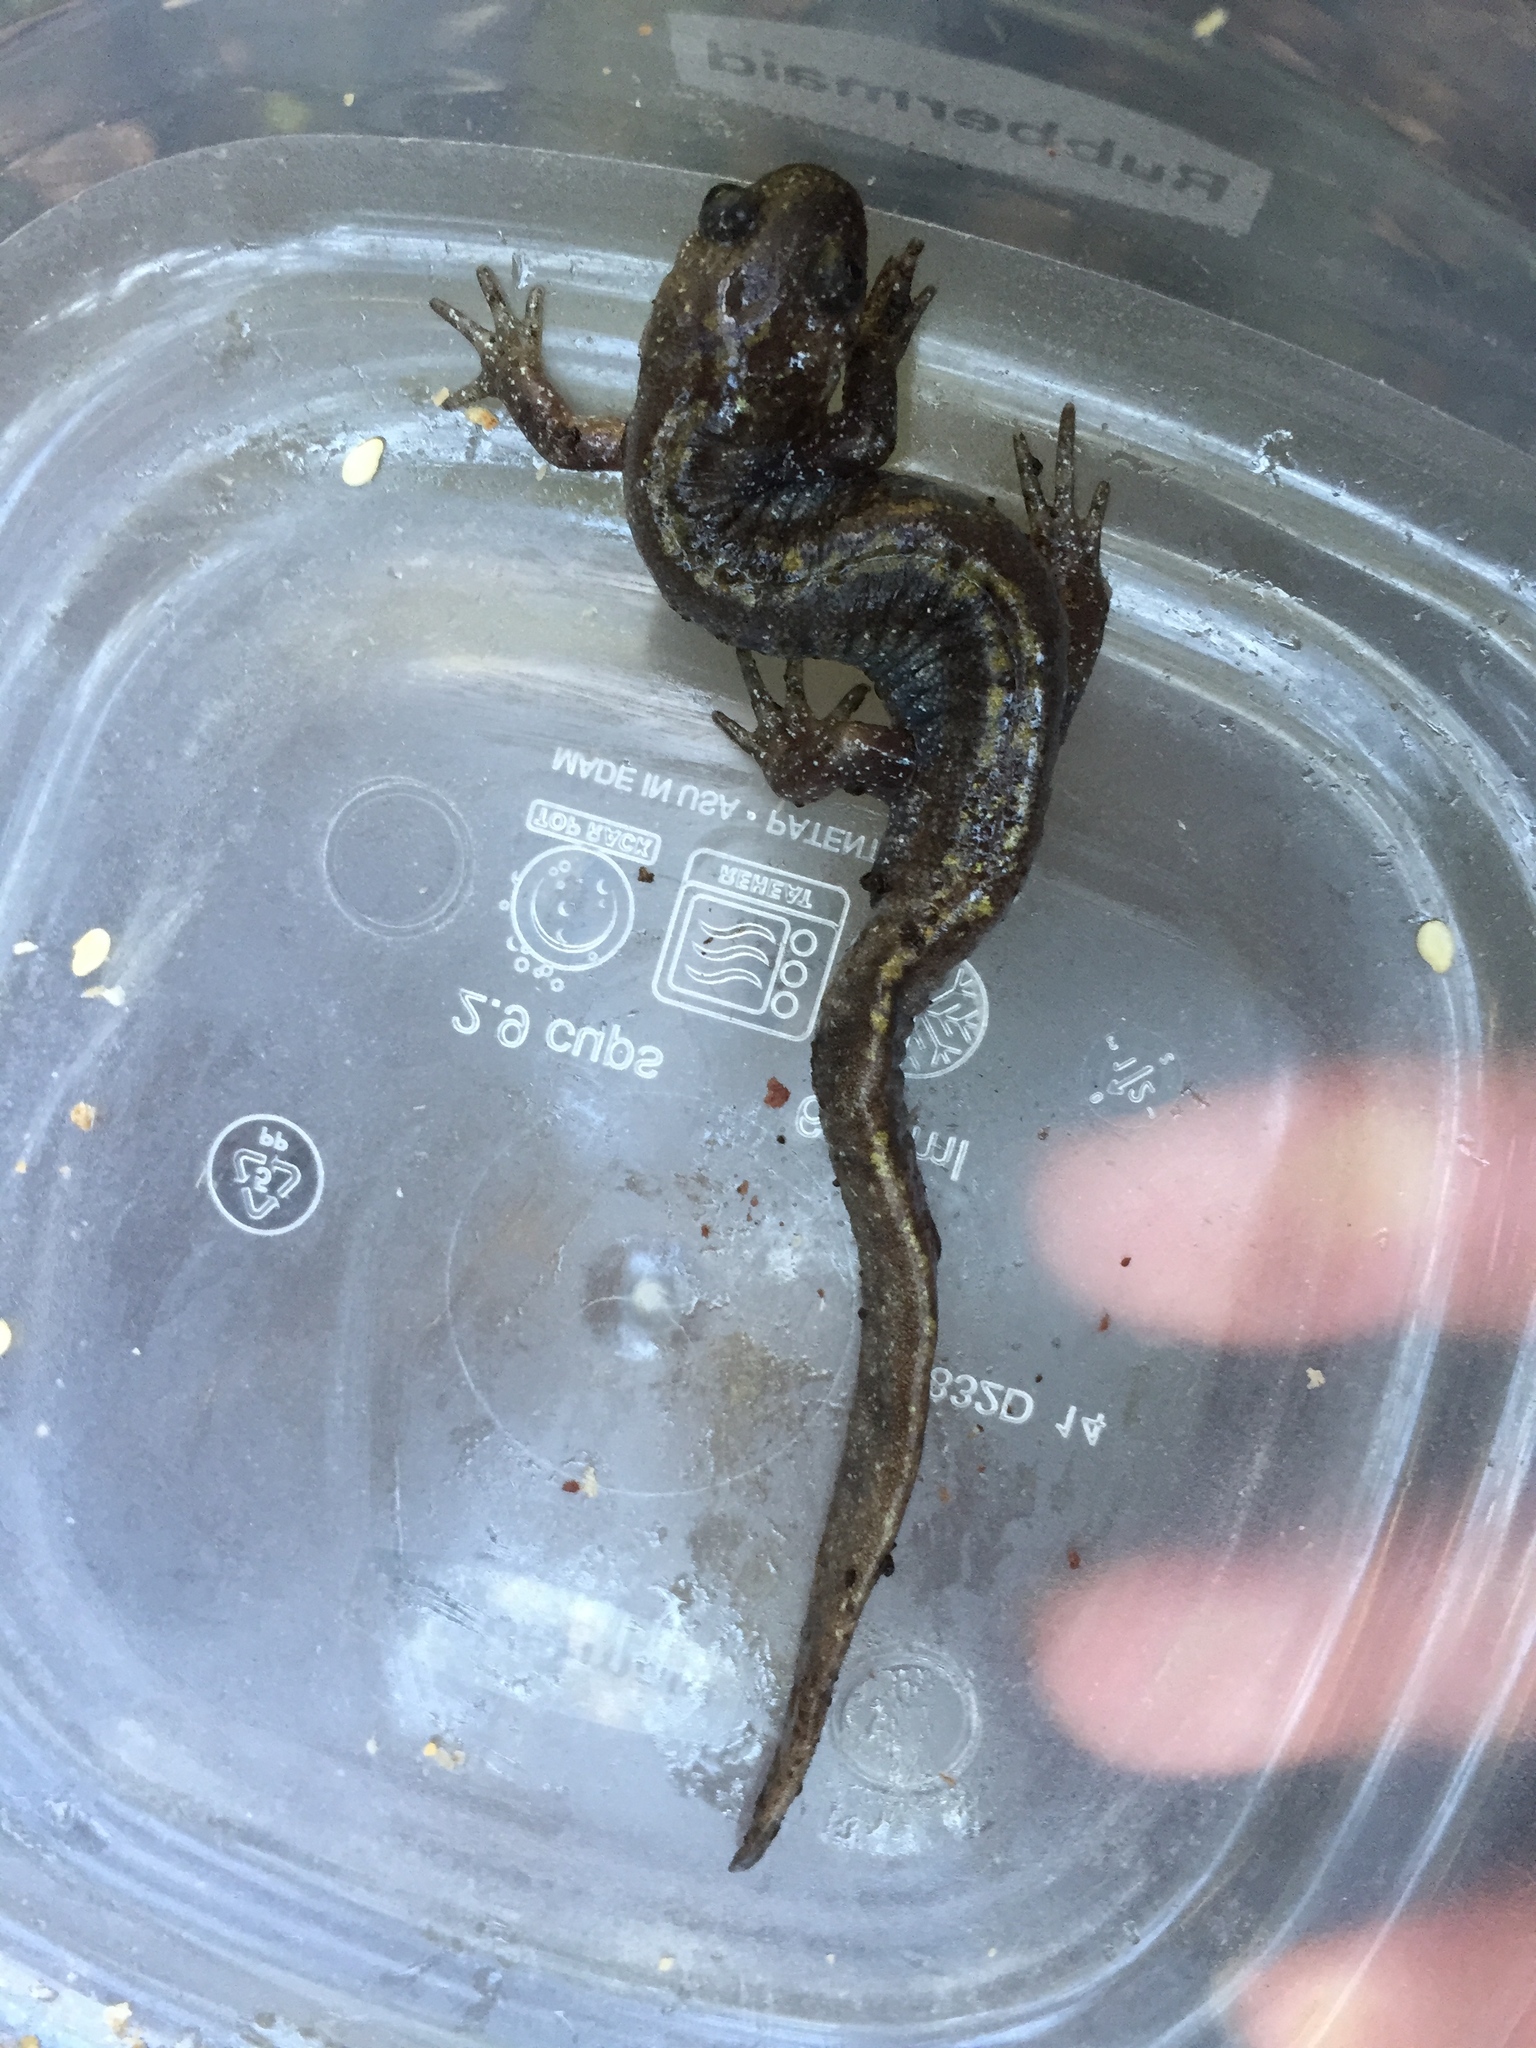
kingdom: Animalia
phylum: Chordata
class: Amphibia
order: Caudata
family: Ambystomatidae
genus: Ambystoma
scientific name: Ambystoma macrodactylum
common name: Long-toed salamander
